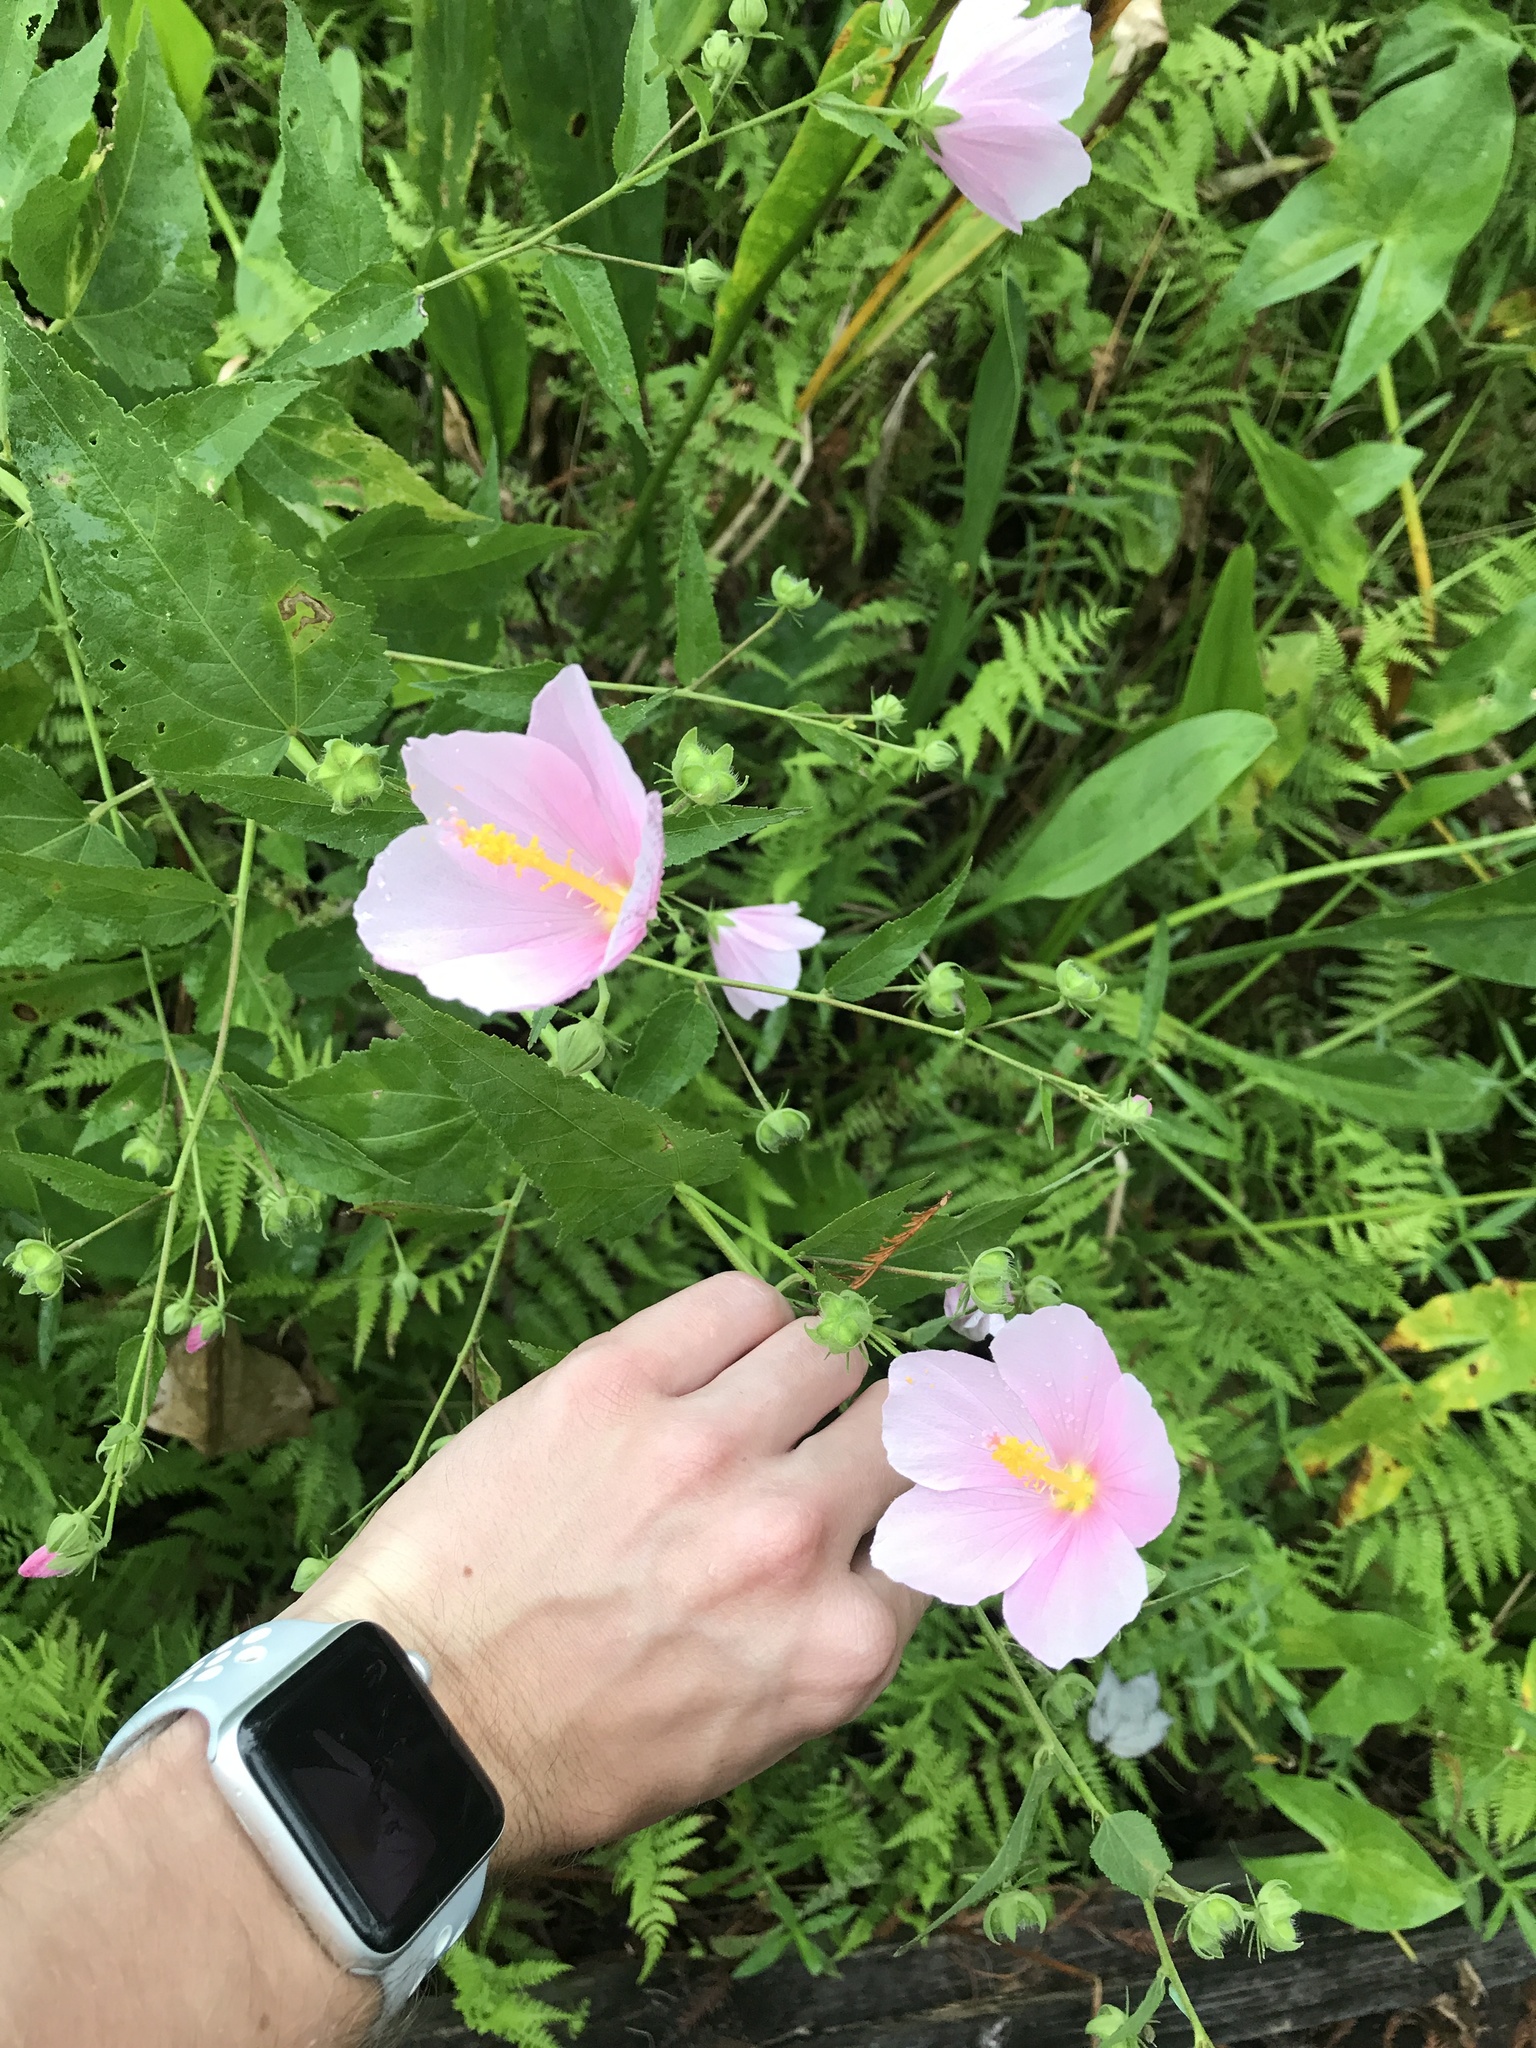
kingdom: Plantae
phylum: Tracheophyta
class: Magnoliopsida
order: Malvales
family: Malvaceae
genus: Kosteletzkya
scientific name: Kosteletzkya pentacarpos
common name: Virginia saltmarsh mallow
